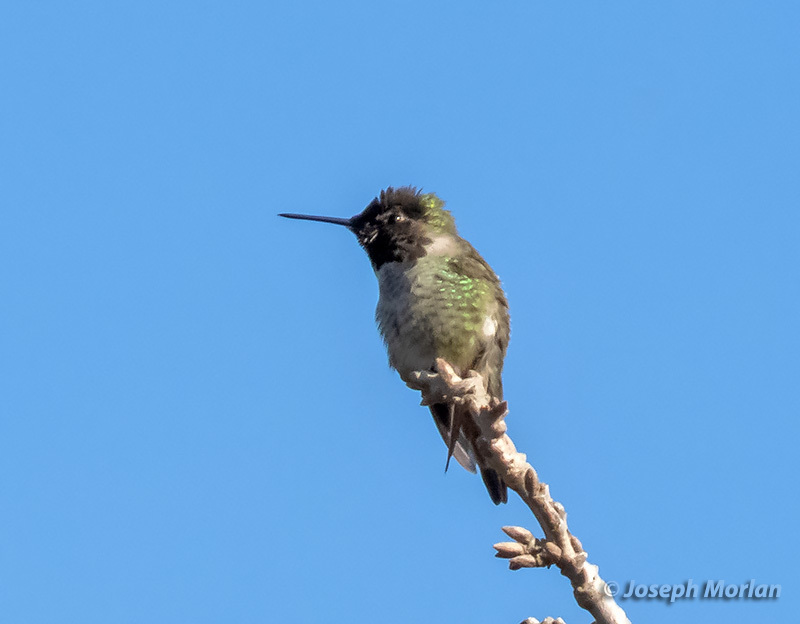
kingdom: Animalia
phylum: Chordata
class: Aves
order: Apodiformes
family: Trochilidae
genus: Calypte
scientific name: Calypte anna
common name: Anna's hummingbird
